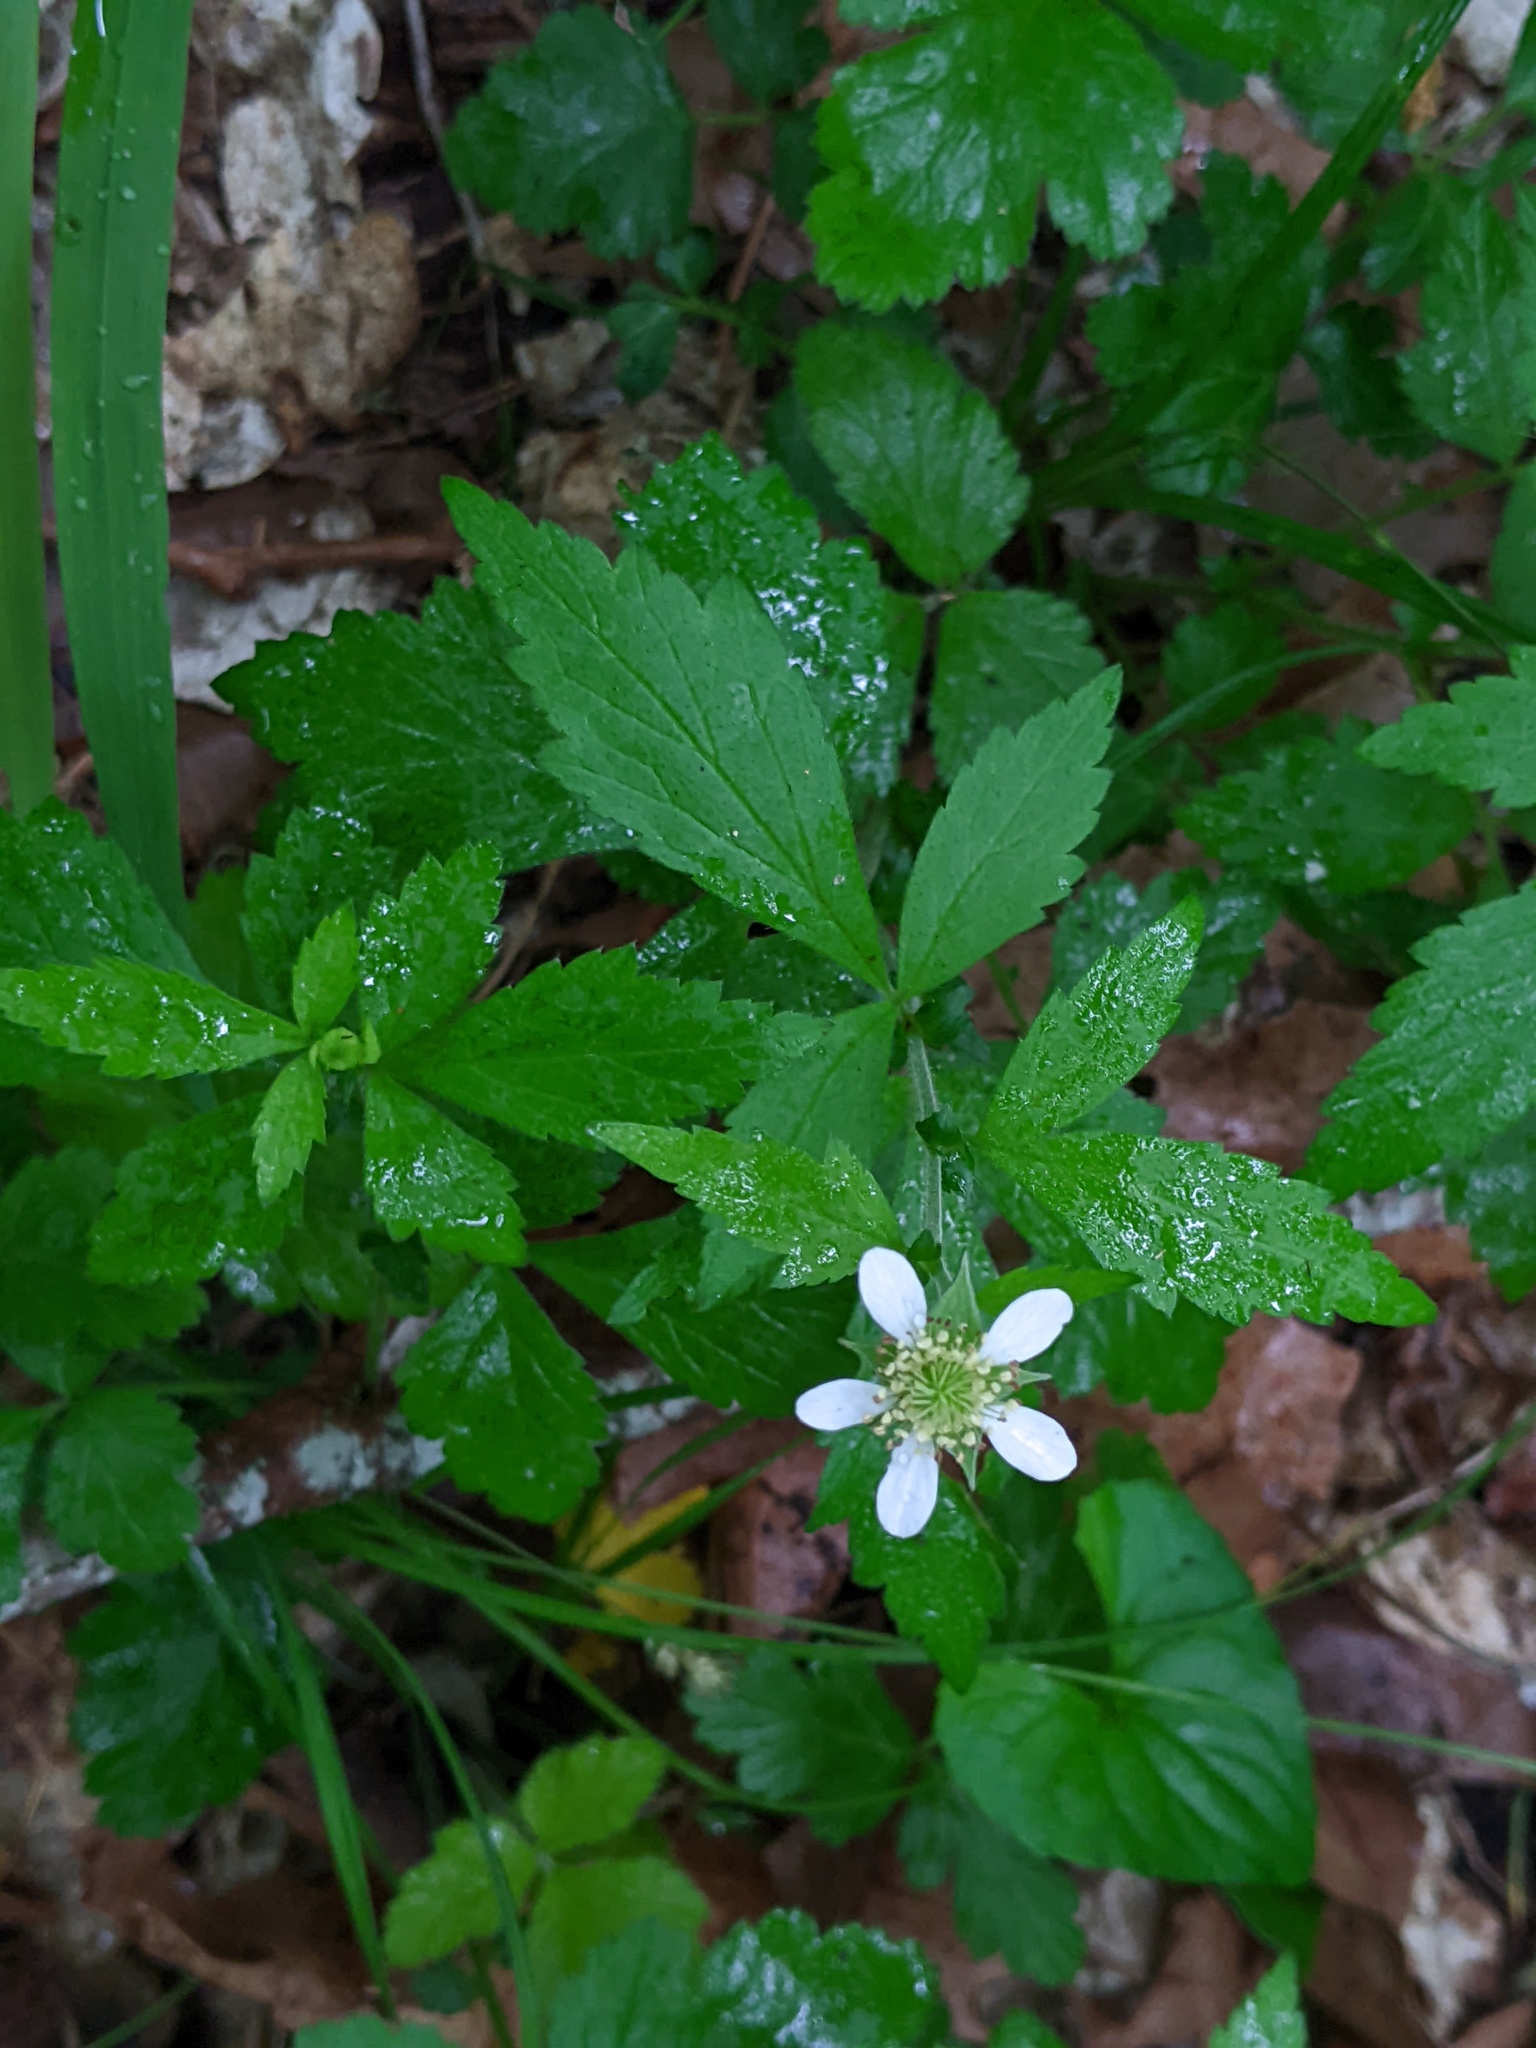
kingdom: Plantae
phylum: Tracheophyta
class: Magnoliopsida
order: Rosales
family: Rosaceae
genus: Geum
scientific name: Geum canadense
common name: White avens
